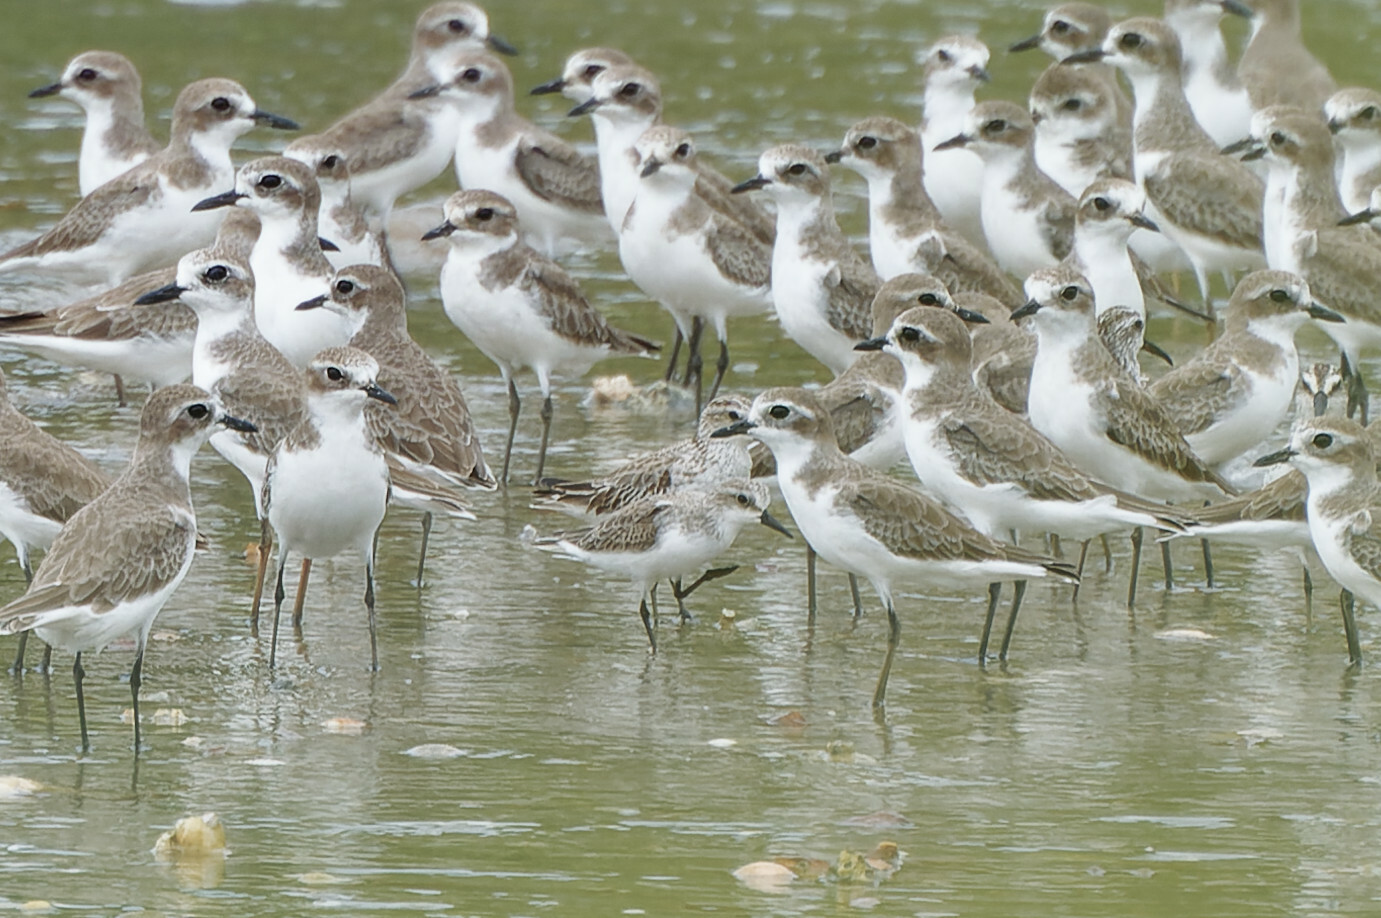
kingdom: Animalia
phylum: Chordata
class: Aves
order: Charadriiformes
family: Scolopacidae
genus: Calidris
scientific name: Calidris ruficollis
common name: Red-necked stint
